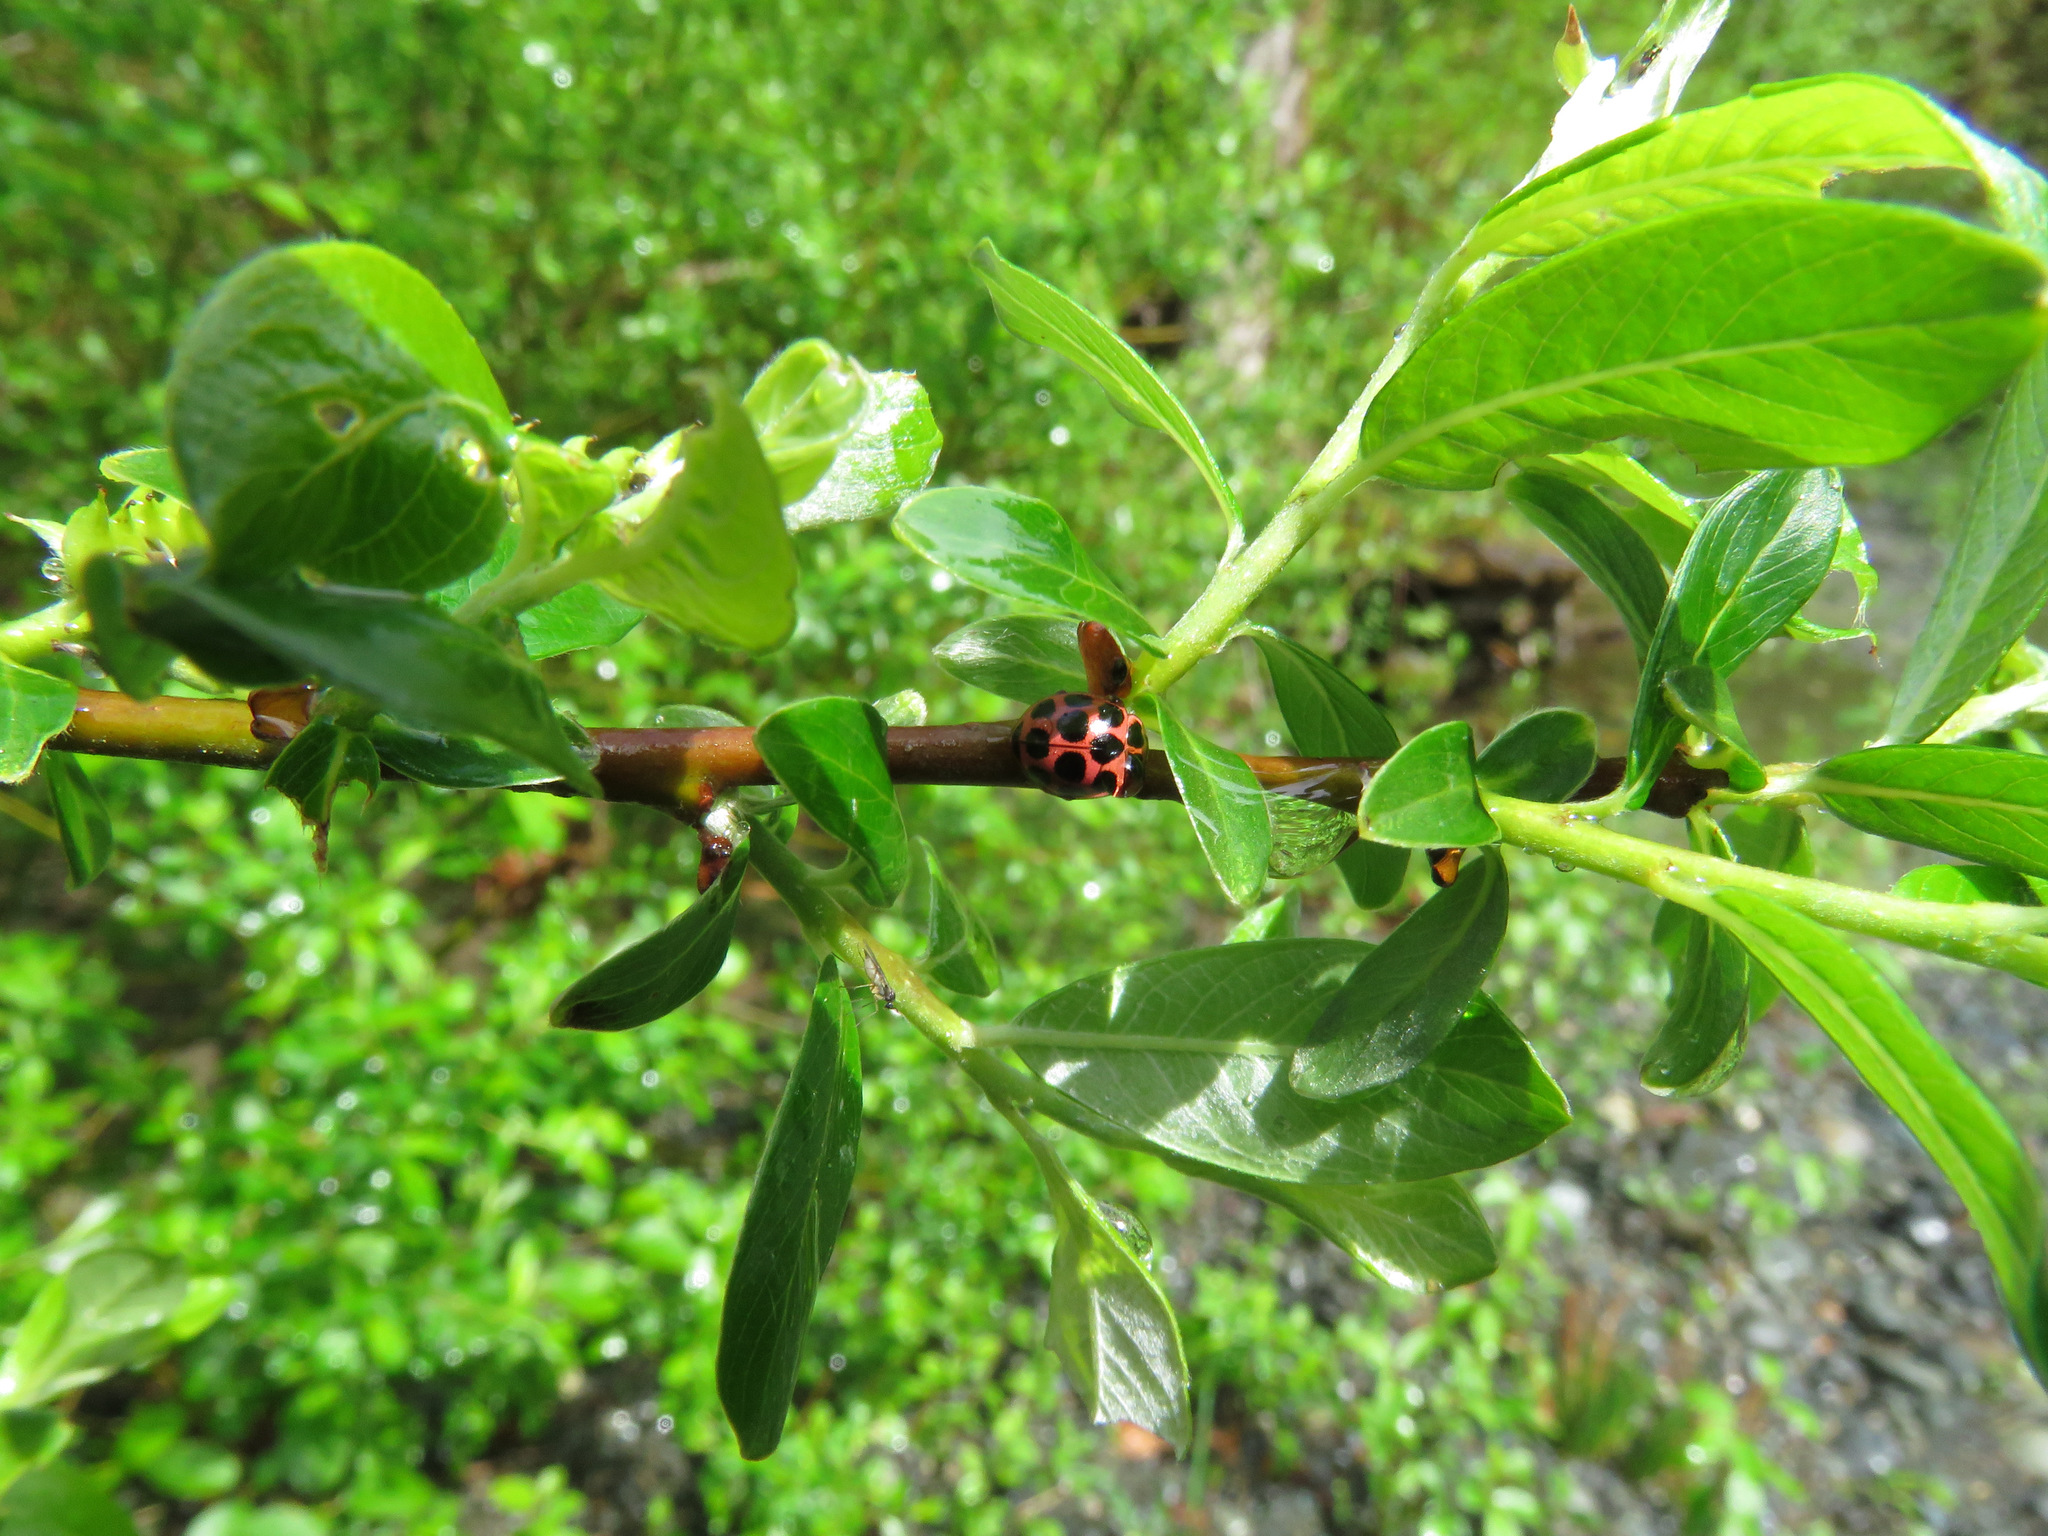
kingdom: Animalia
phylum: Arthropoda
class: Insecta
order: Coleoptera
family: Coccinellidae
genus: Calvia
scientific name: Calvia quatuordecimguttata
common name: Cream-spot ladybird
